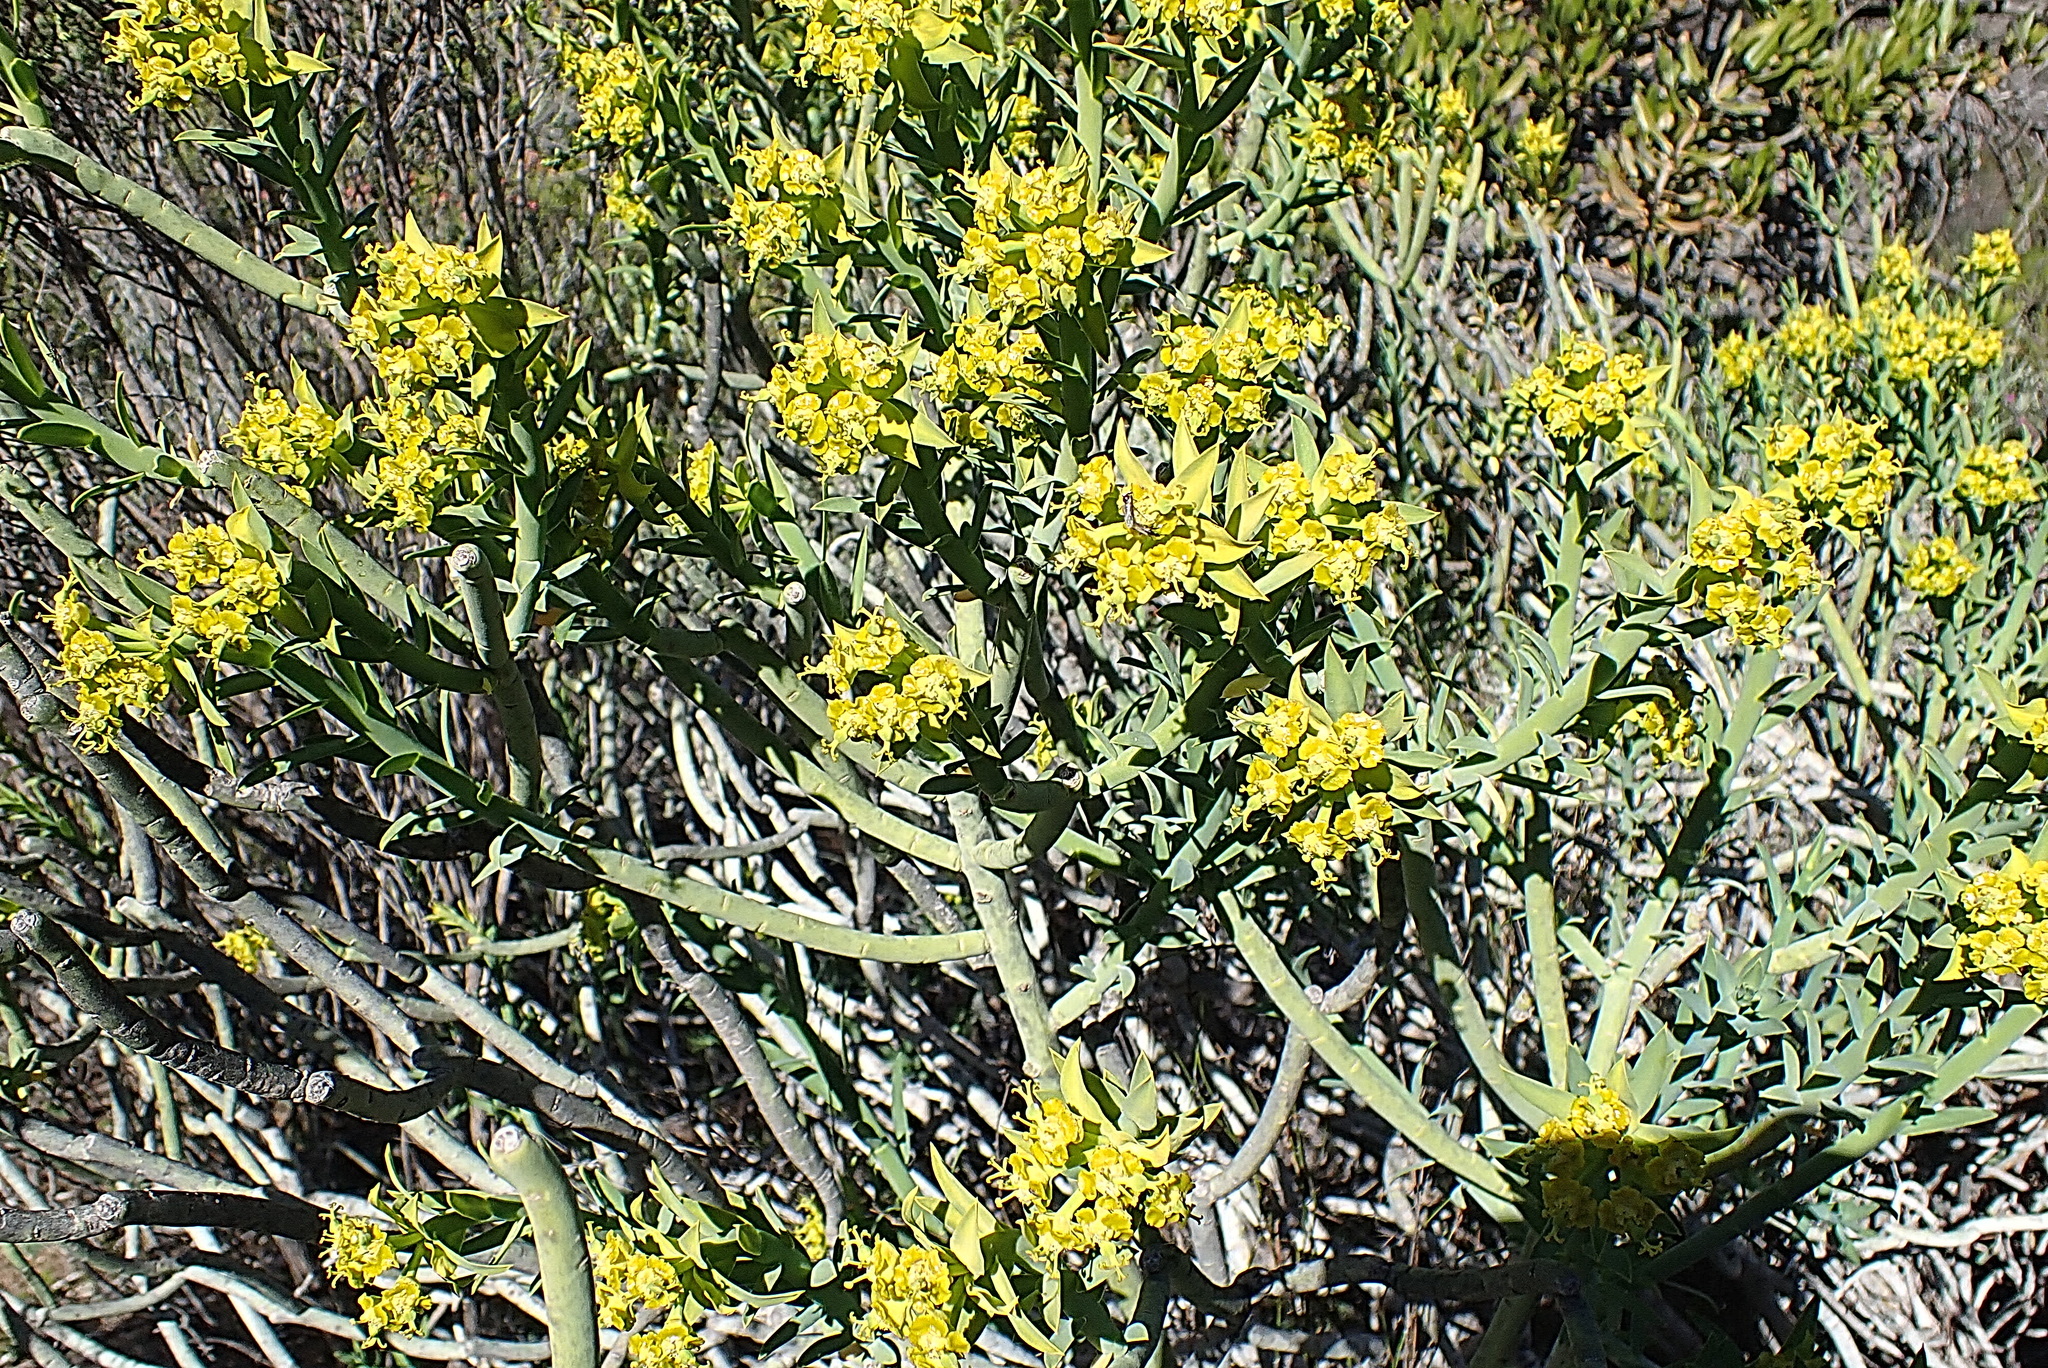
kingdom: Plantae
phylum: Tracheophyta
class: Magnoliopsida
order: Malpighiales
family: Euphorbiaceae
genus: Euphorbia
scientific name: Euphorbia mauritanica
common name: Jackal's-food
